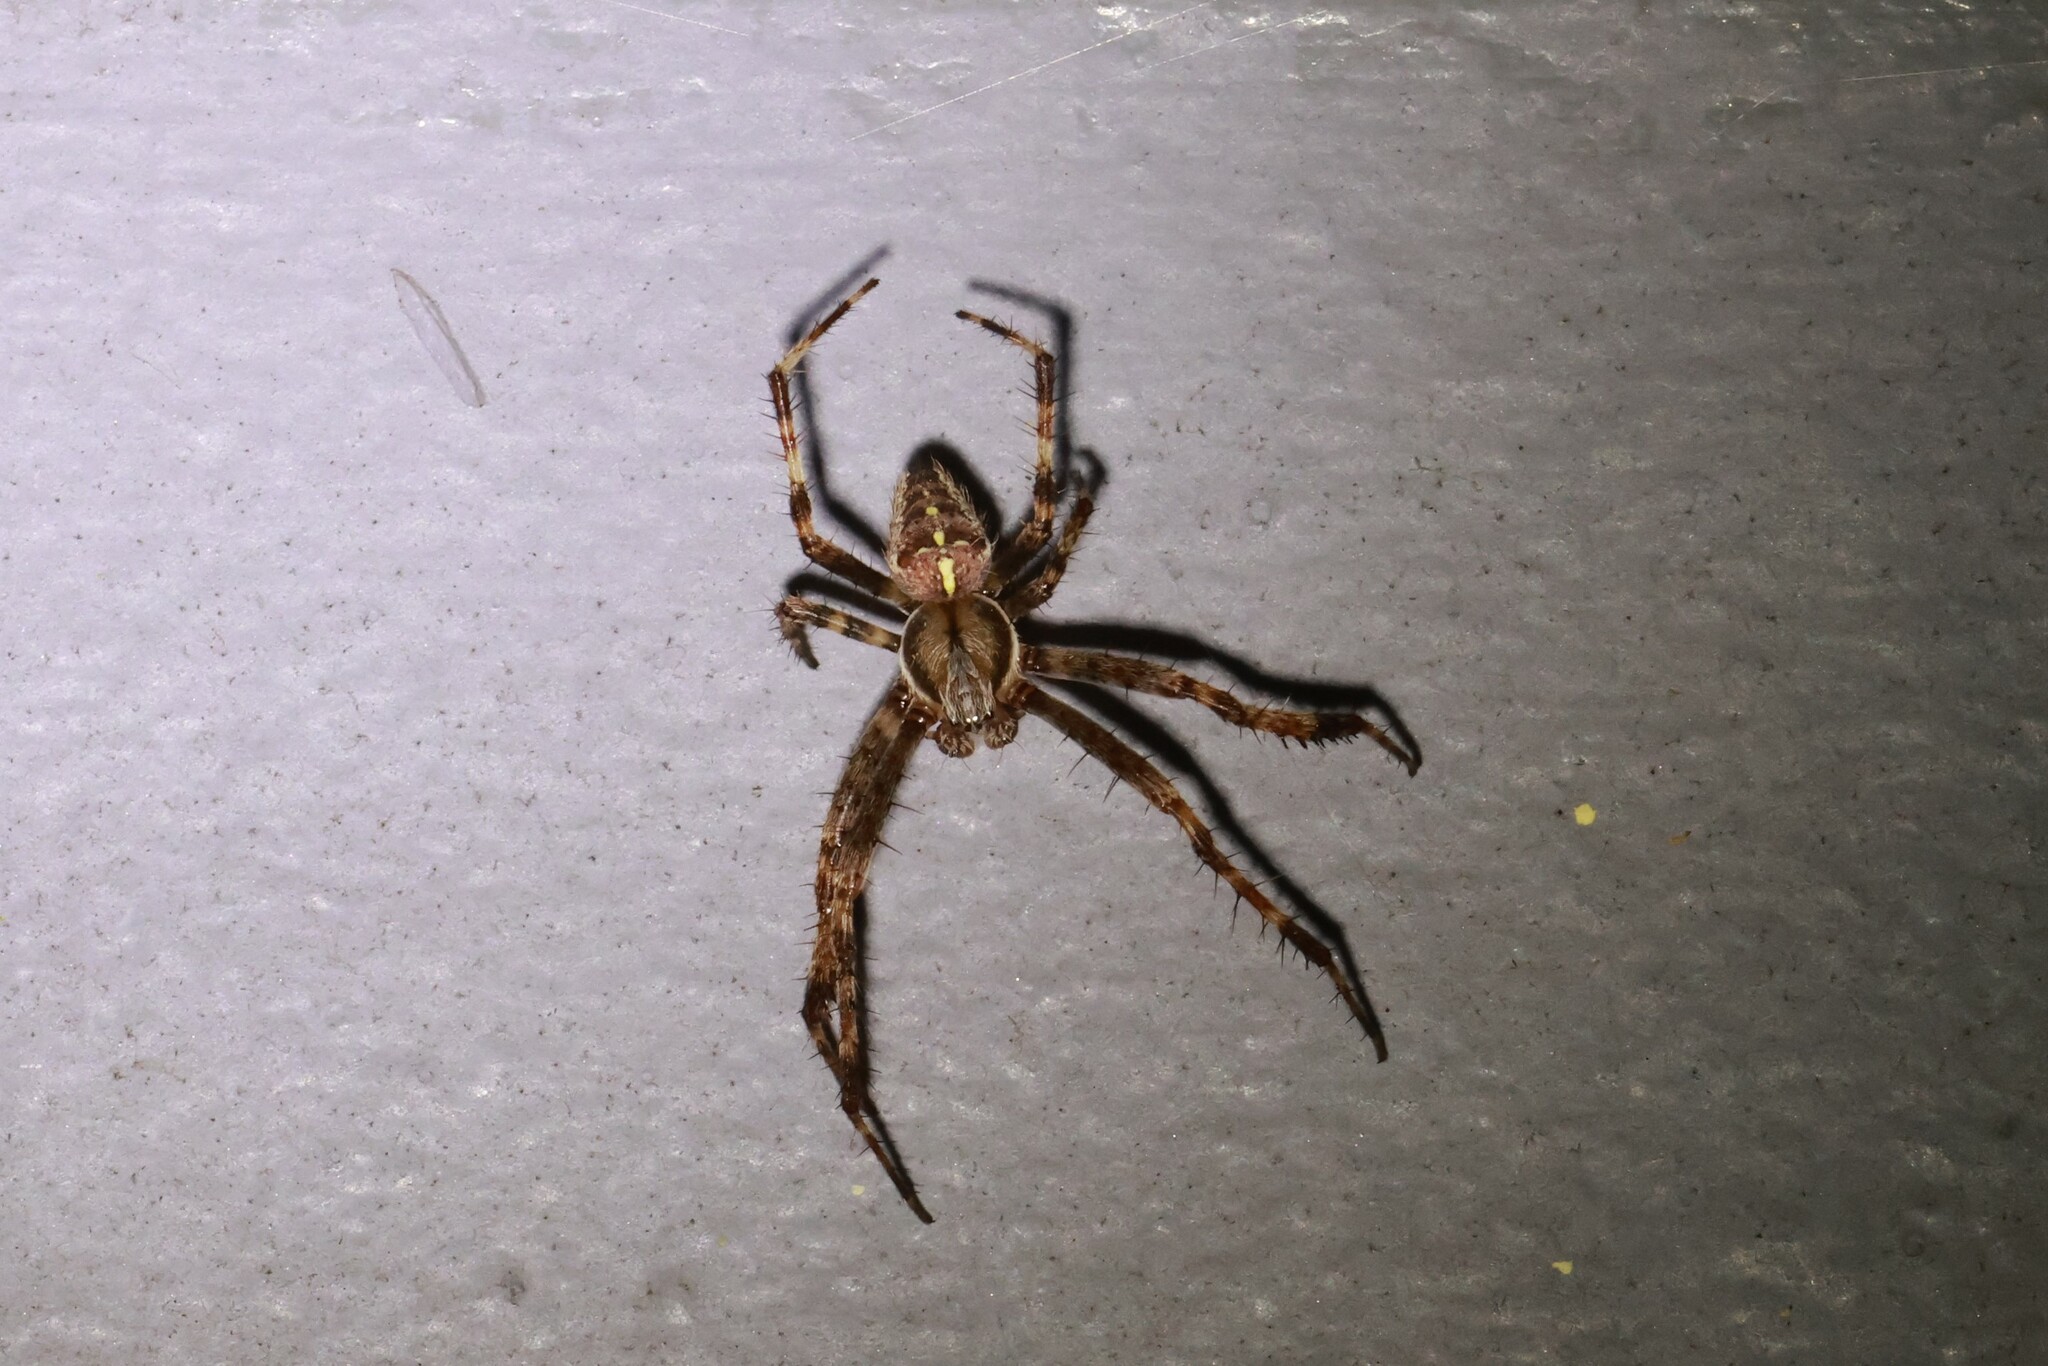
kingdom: Animalia
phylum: Arthropoda
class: Arachnida
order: Araneae
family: Araneidae
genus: Araneus
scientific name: Araneus diadematus
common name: Cross orbweaver
